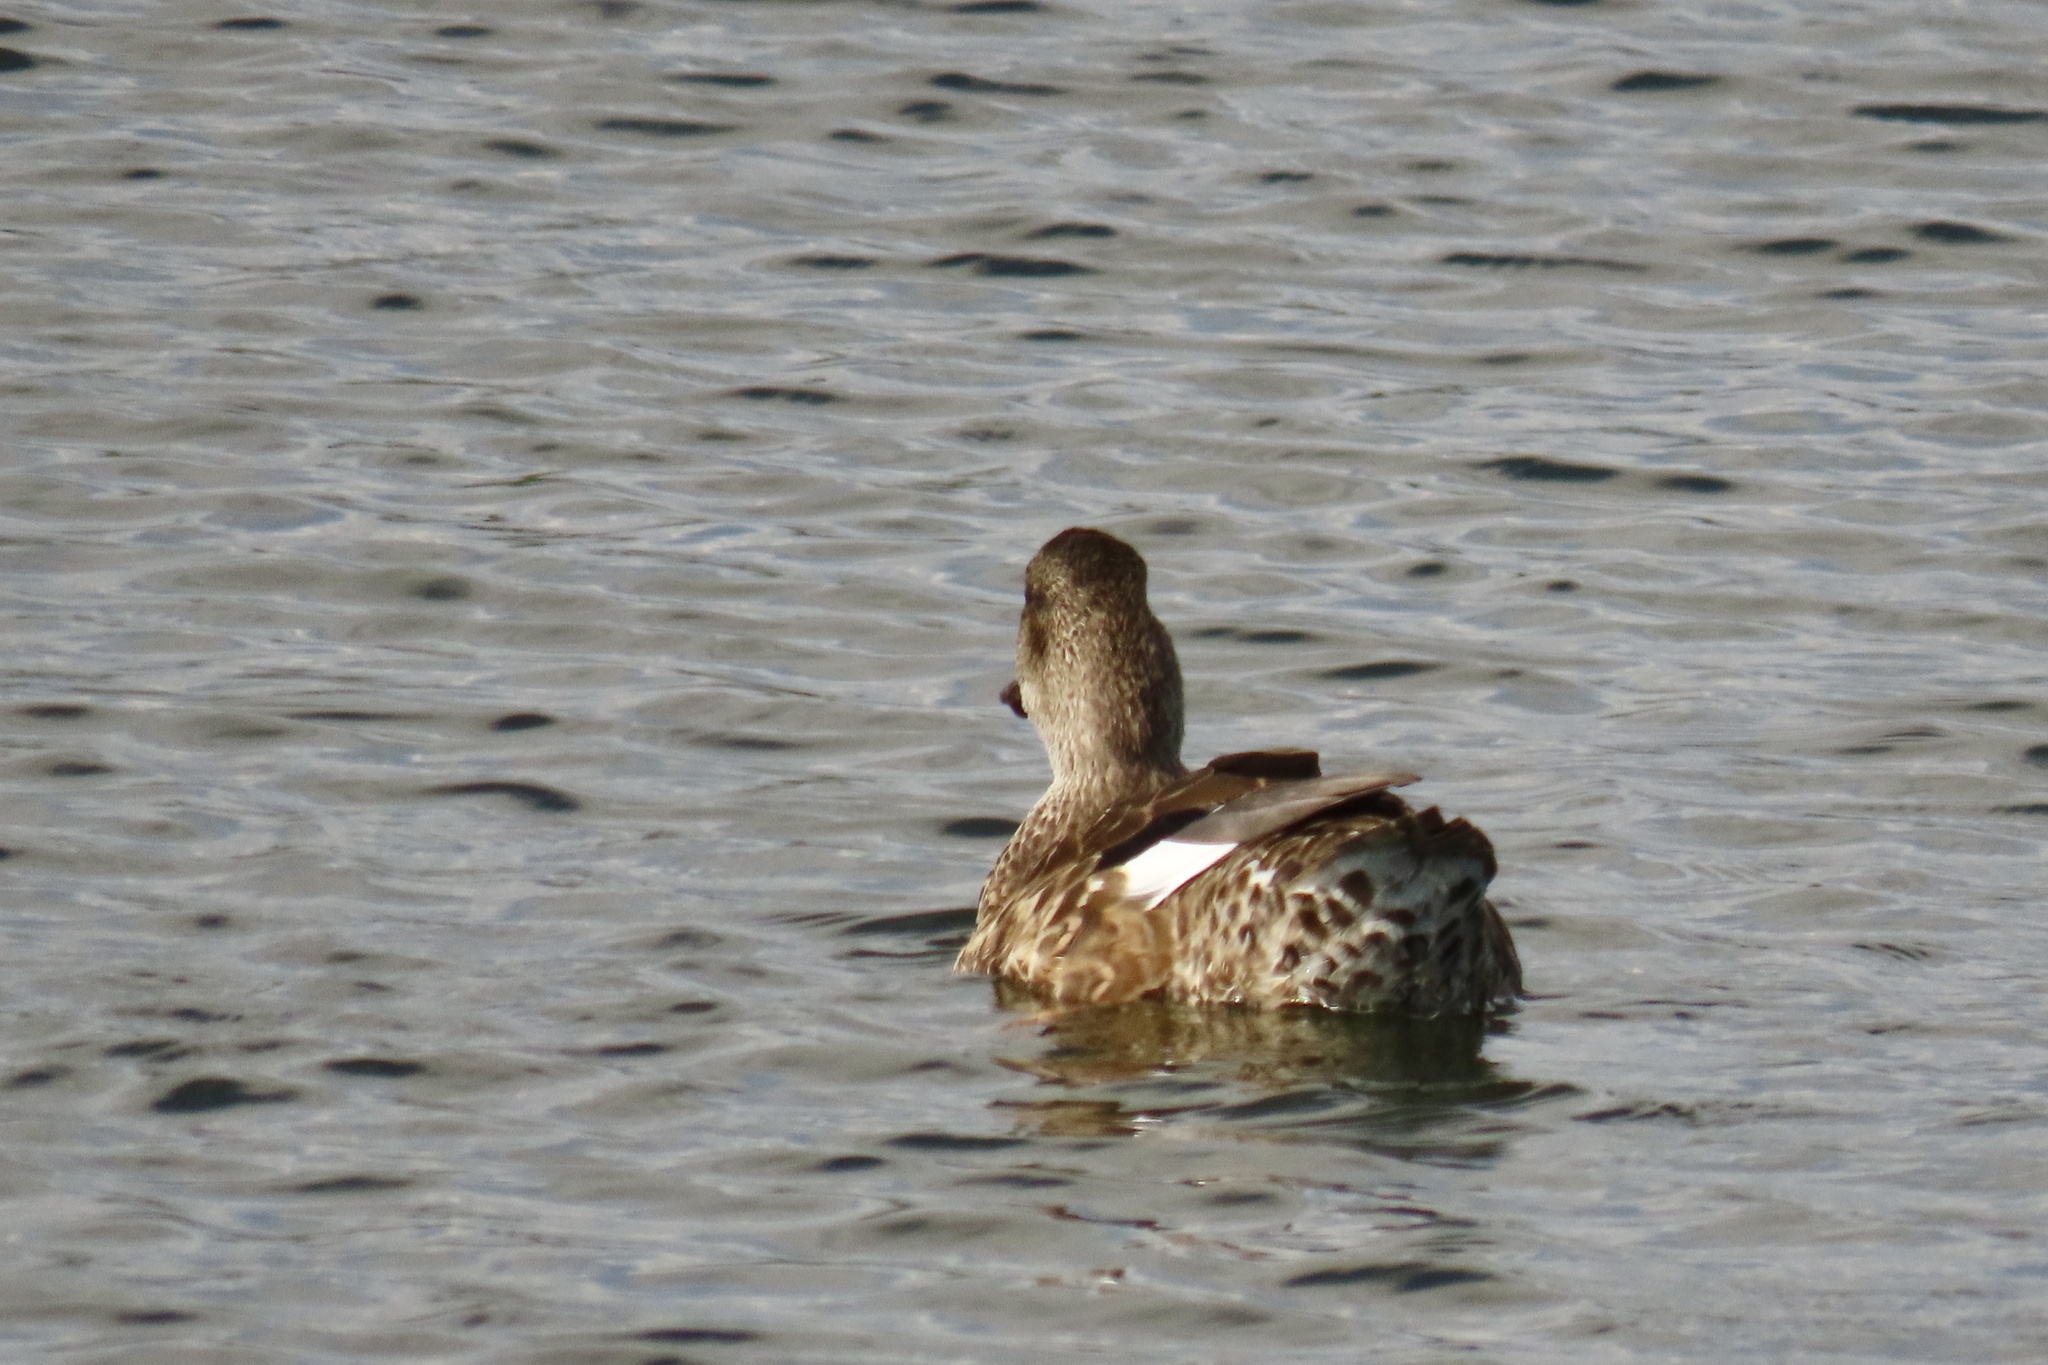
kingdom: Animalia
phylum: Chordata
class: Aves
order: Anseriformes
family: Anatidae
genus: Mareca
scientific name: Mareca strepera
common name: Gadwall
